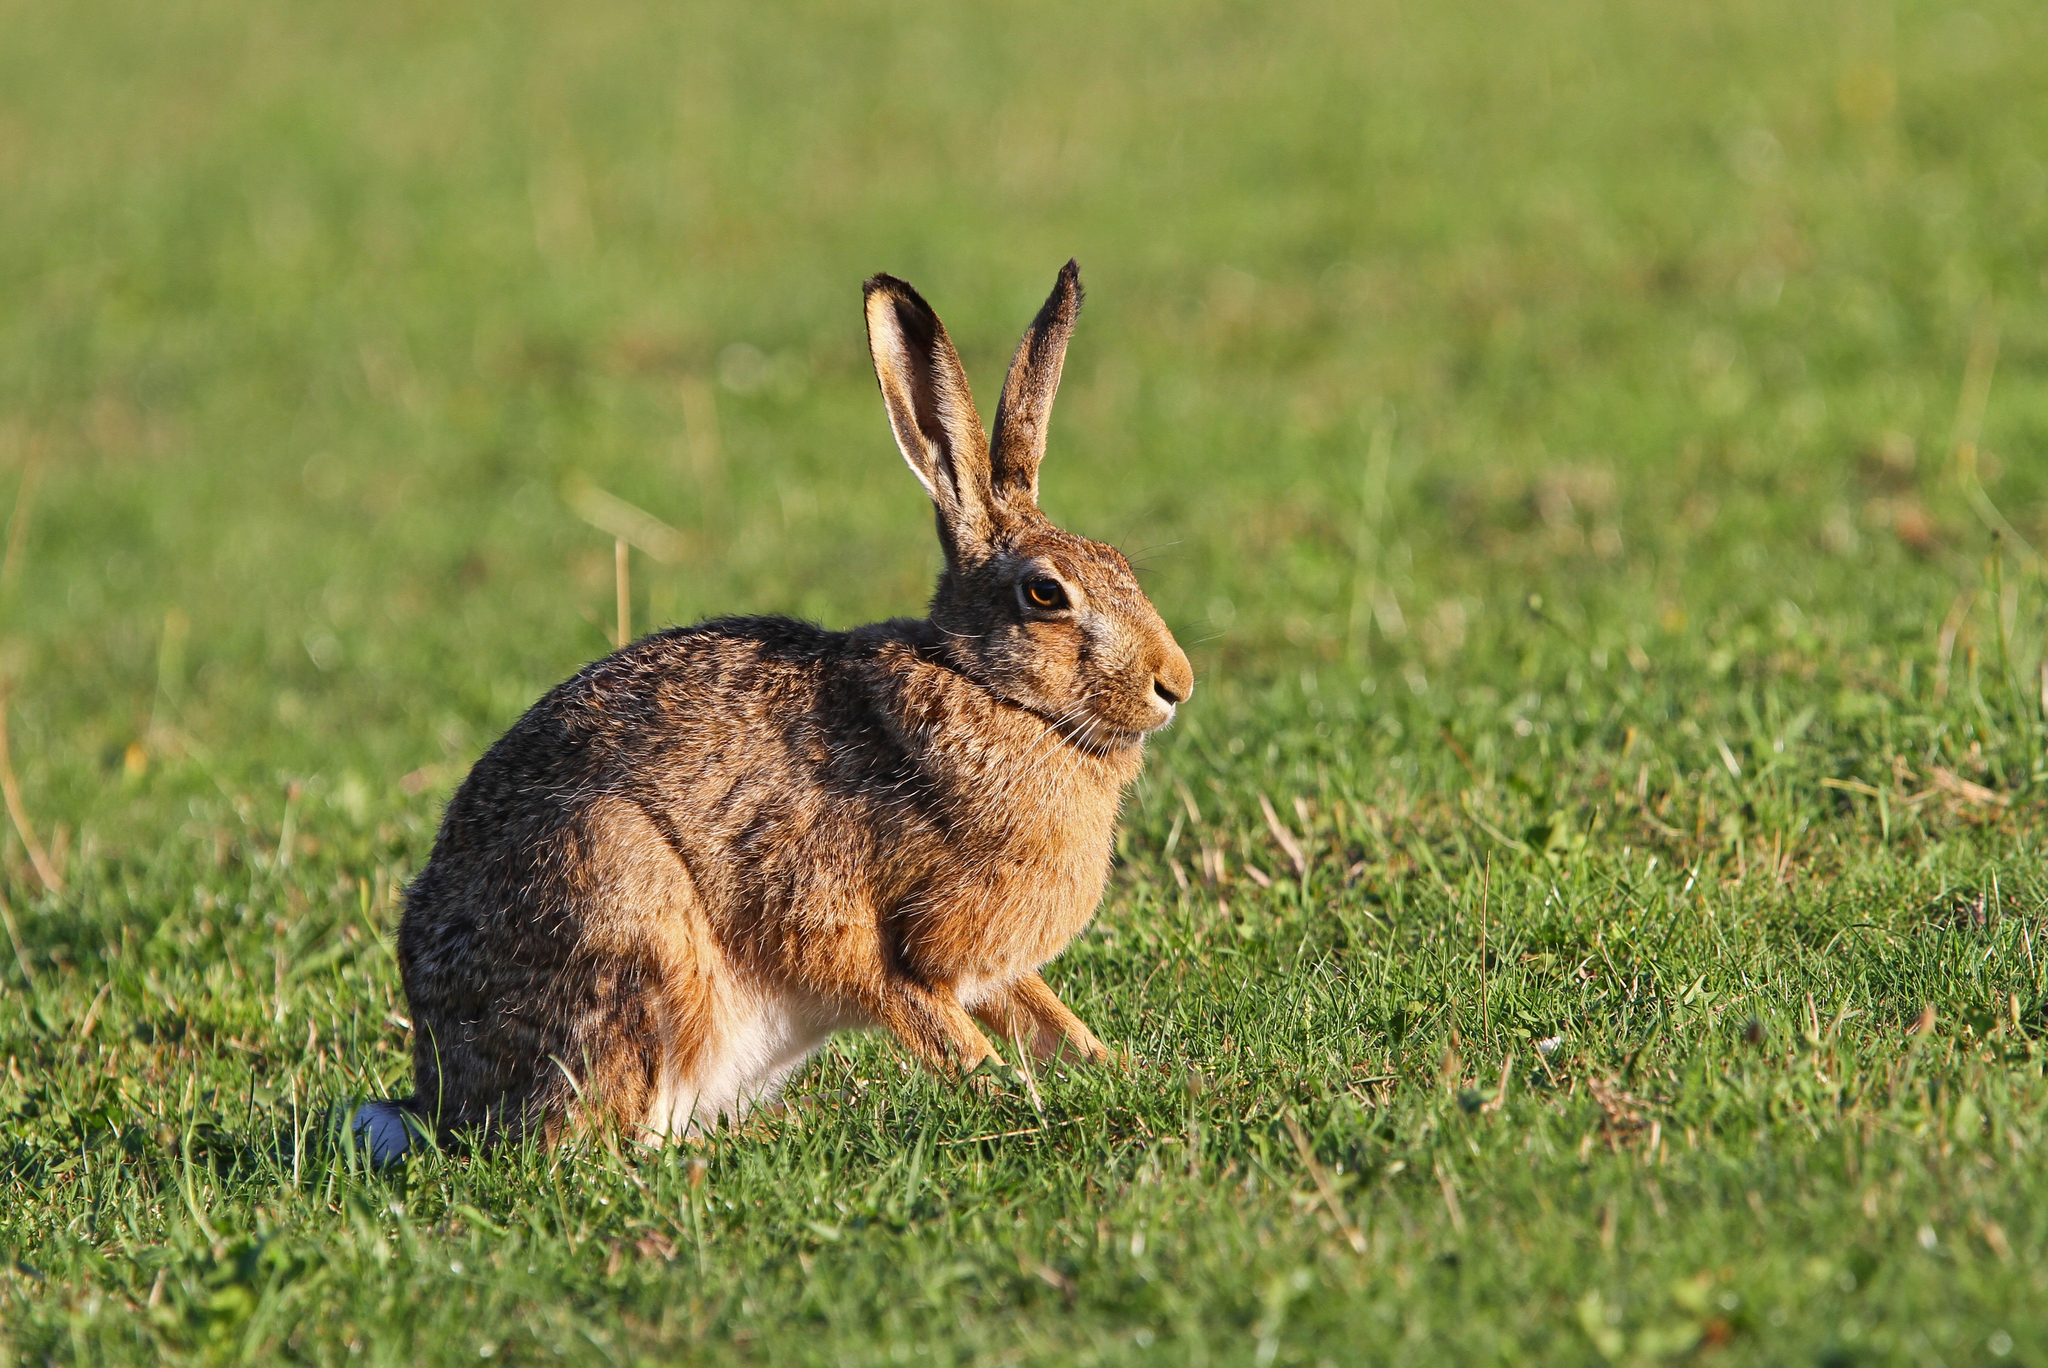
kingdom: Animalia
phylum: Chordata
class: Mammalia
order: Lagomorpha
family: Leporidae
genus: Lepus
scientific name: Lepus europaeus
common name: European hare
